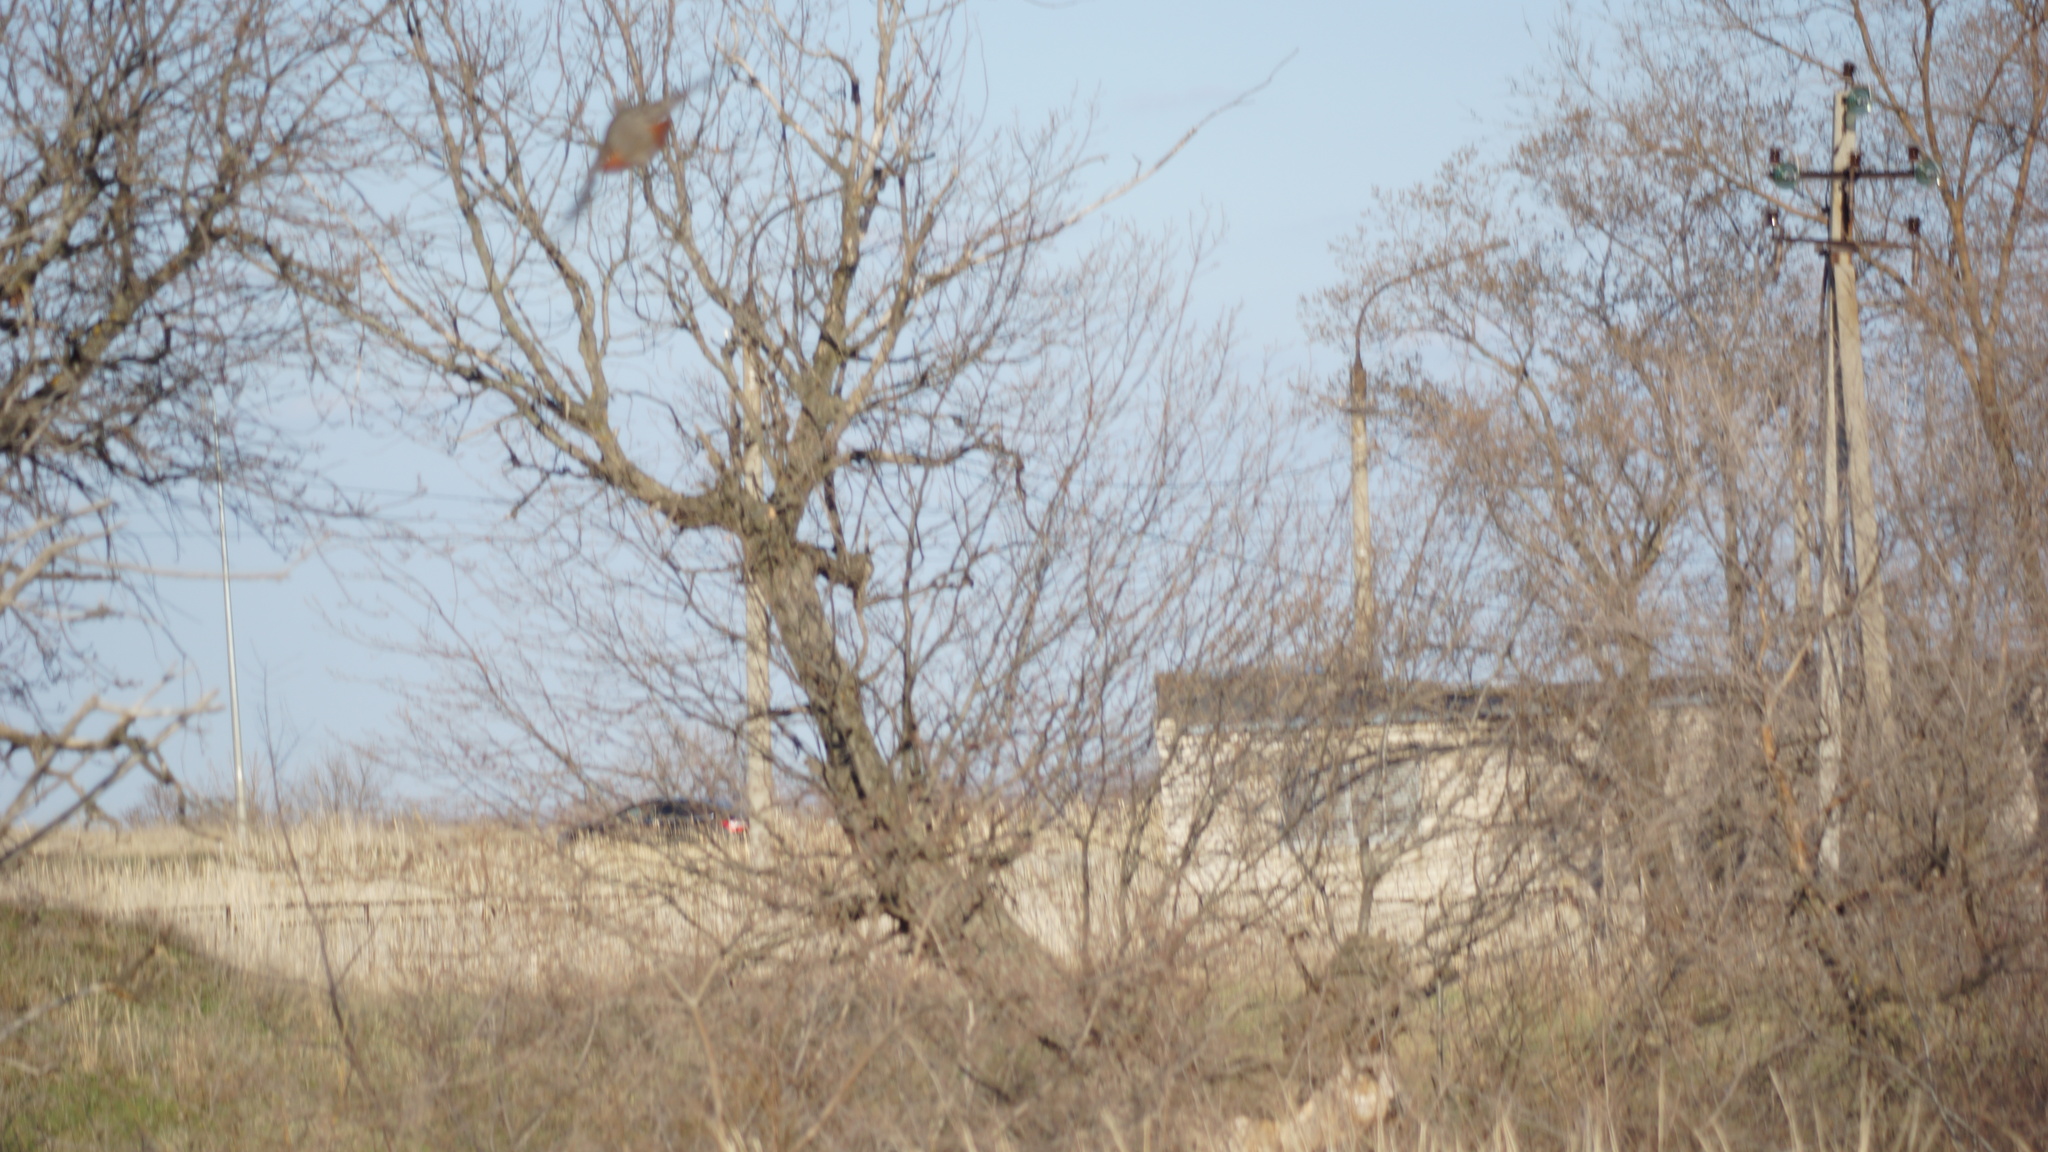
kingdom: Animalia
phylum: Chordata
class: Aves
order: Galliformes
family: Phasianidae
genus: Perdix
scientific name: Perdix perdix
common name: Grey partridge
